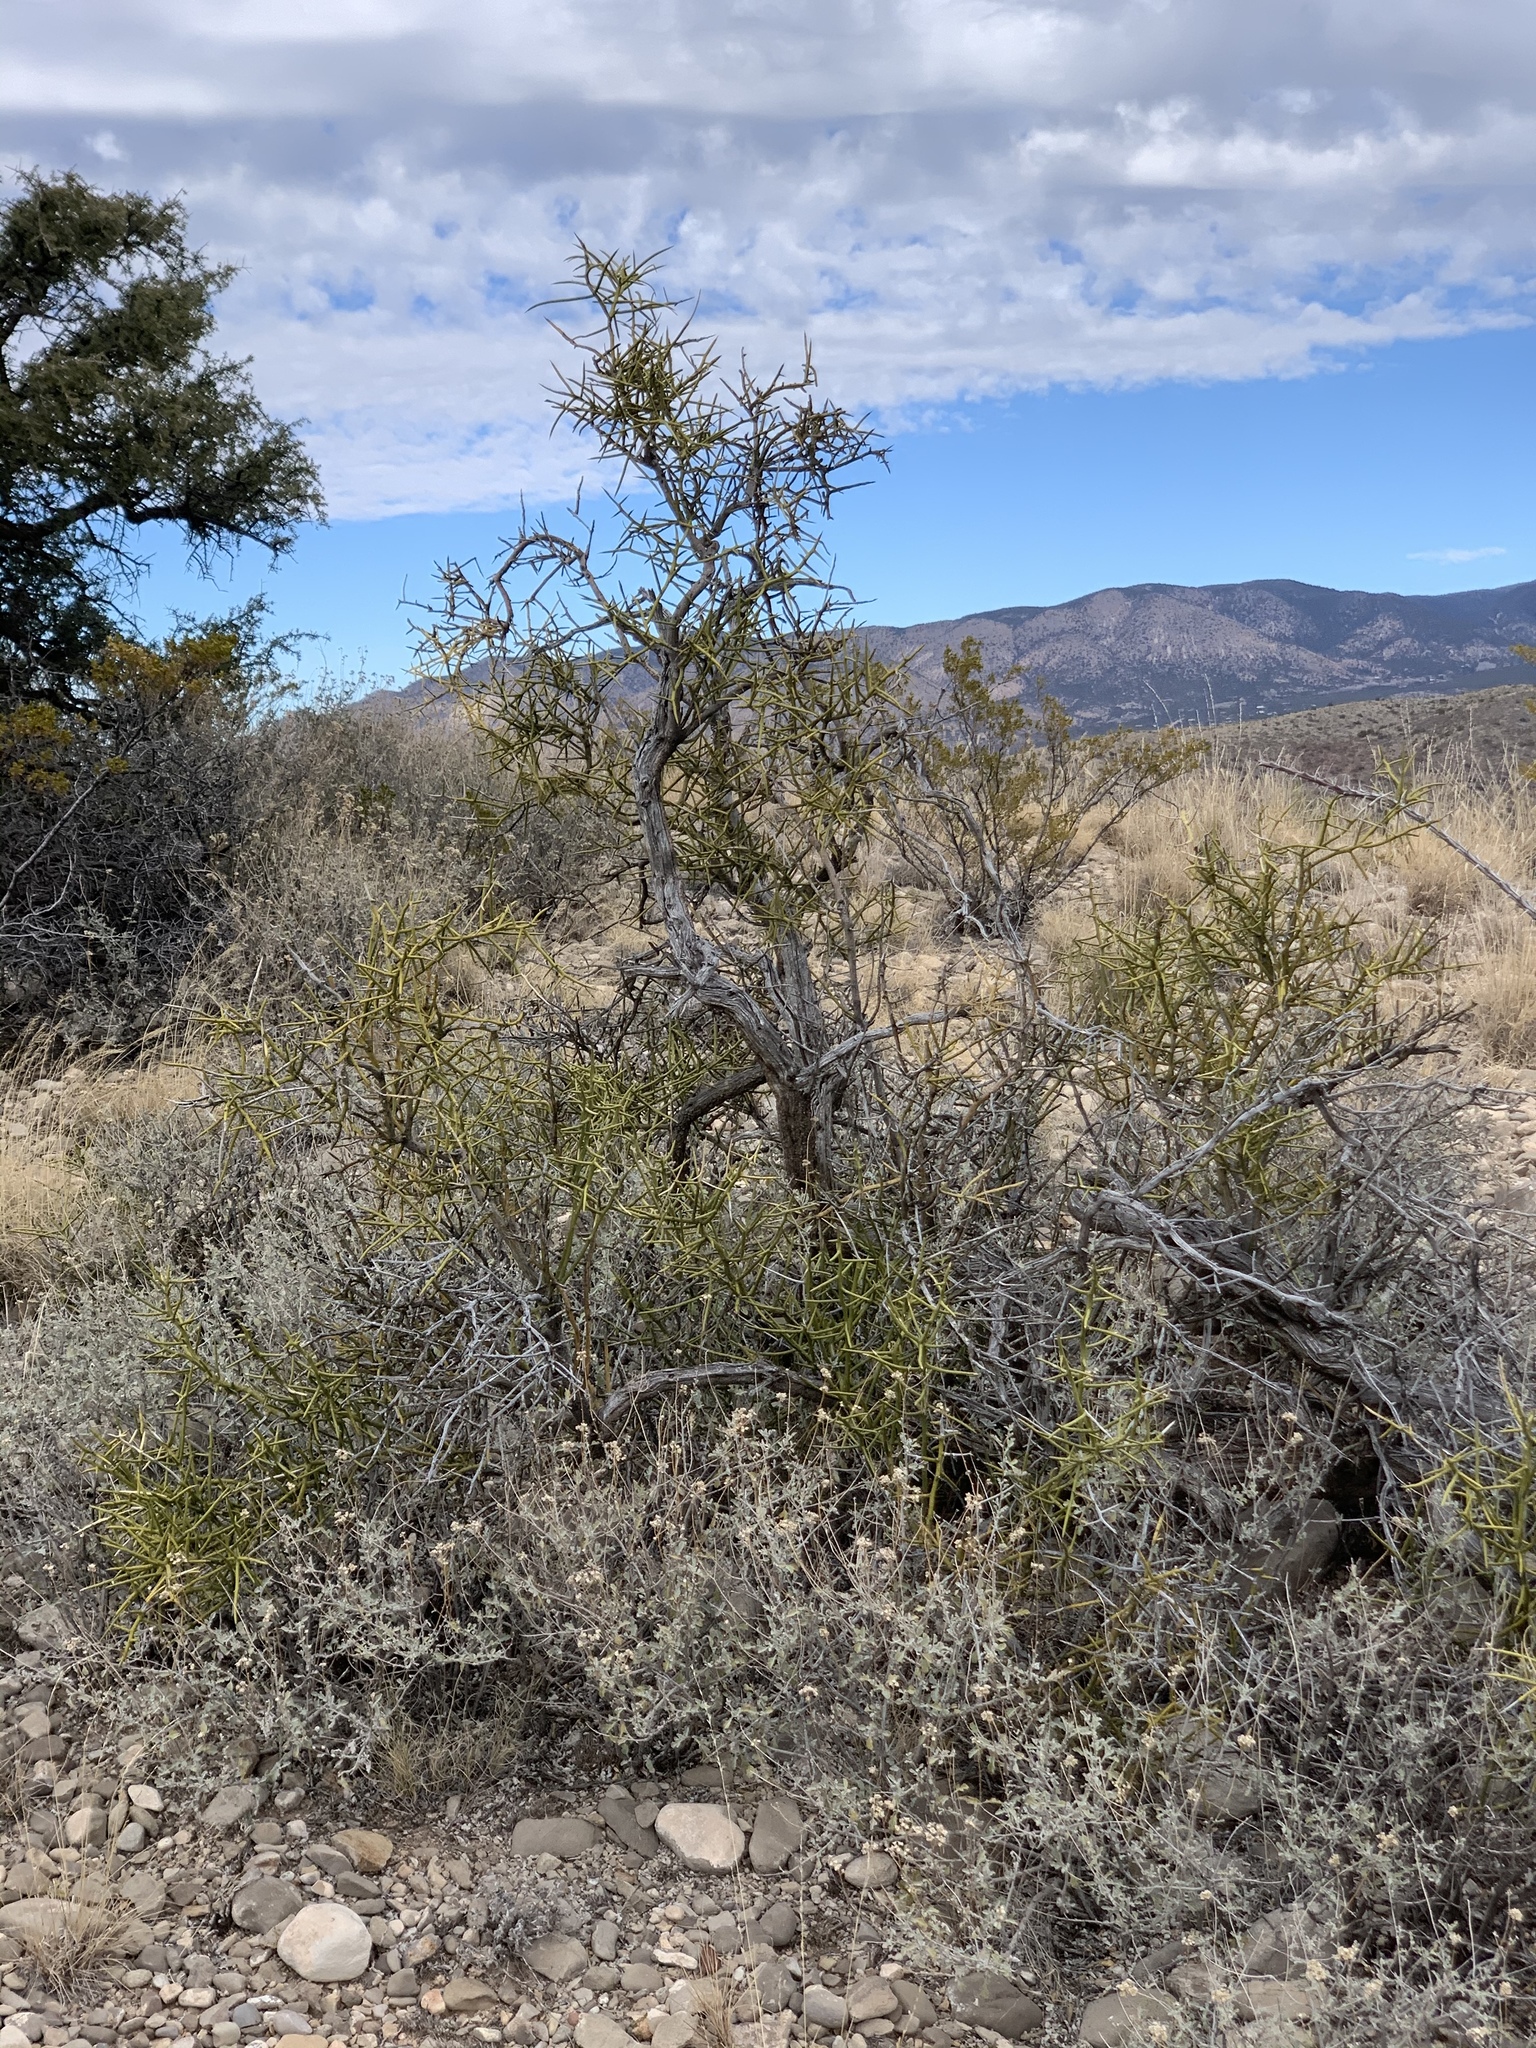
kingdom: Plantae
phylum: Tracheophyta
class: Magnoliopsida
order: Brassicales
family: Koeberliniaceae
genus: Koeberlinia
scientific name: Koeberlinia spinosa
